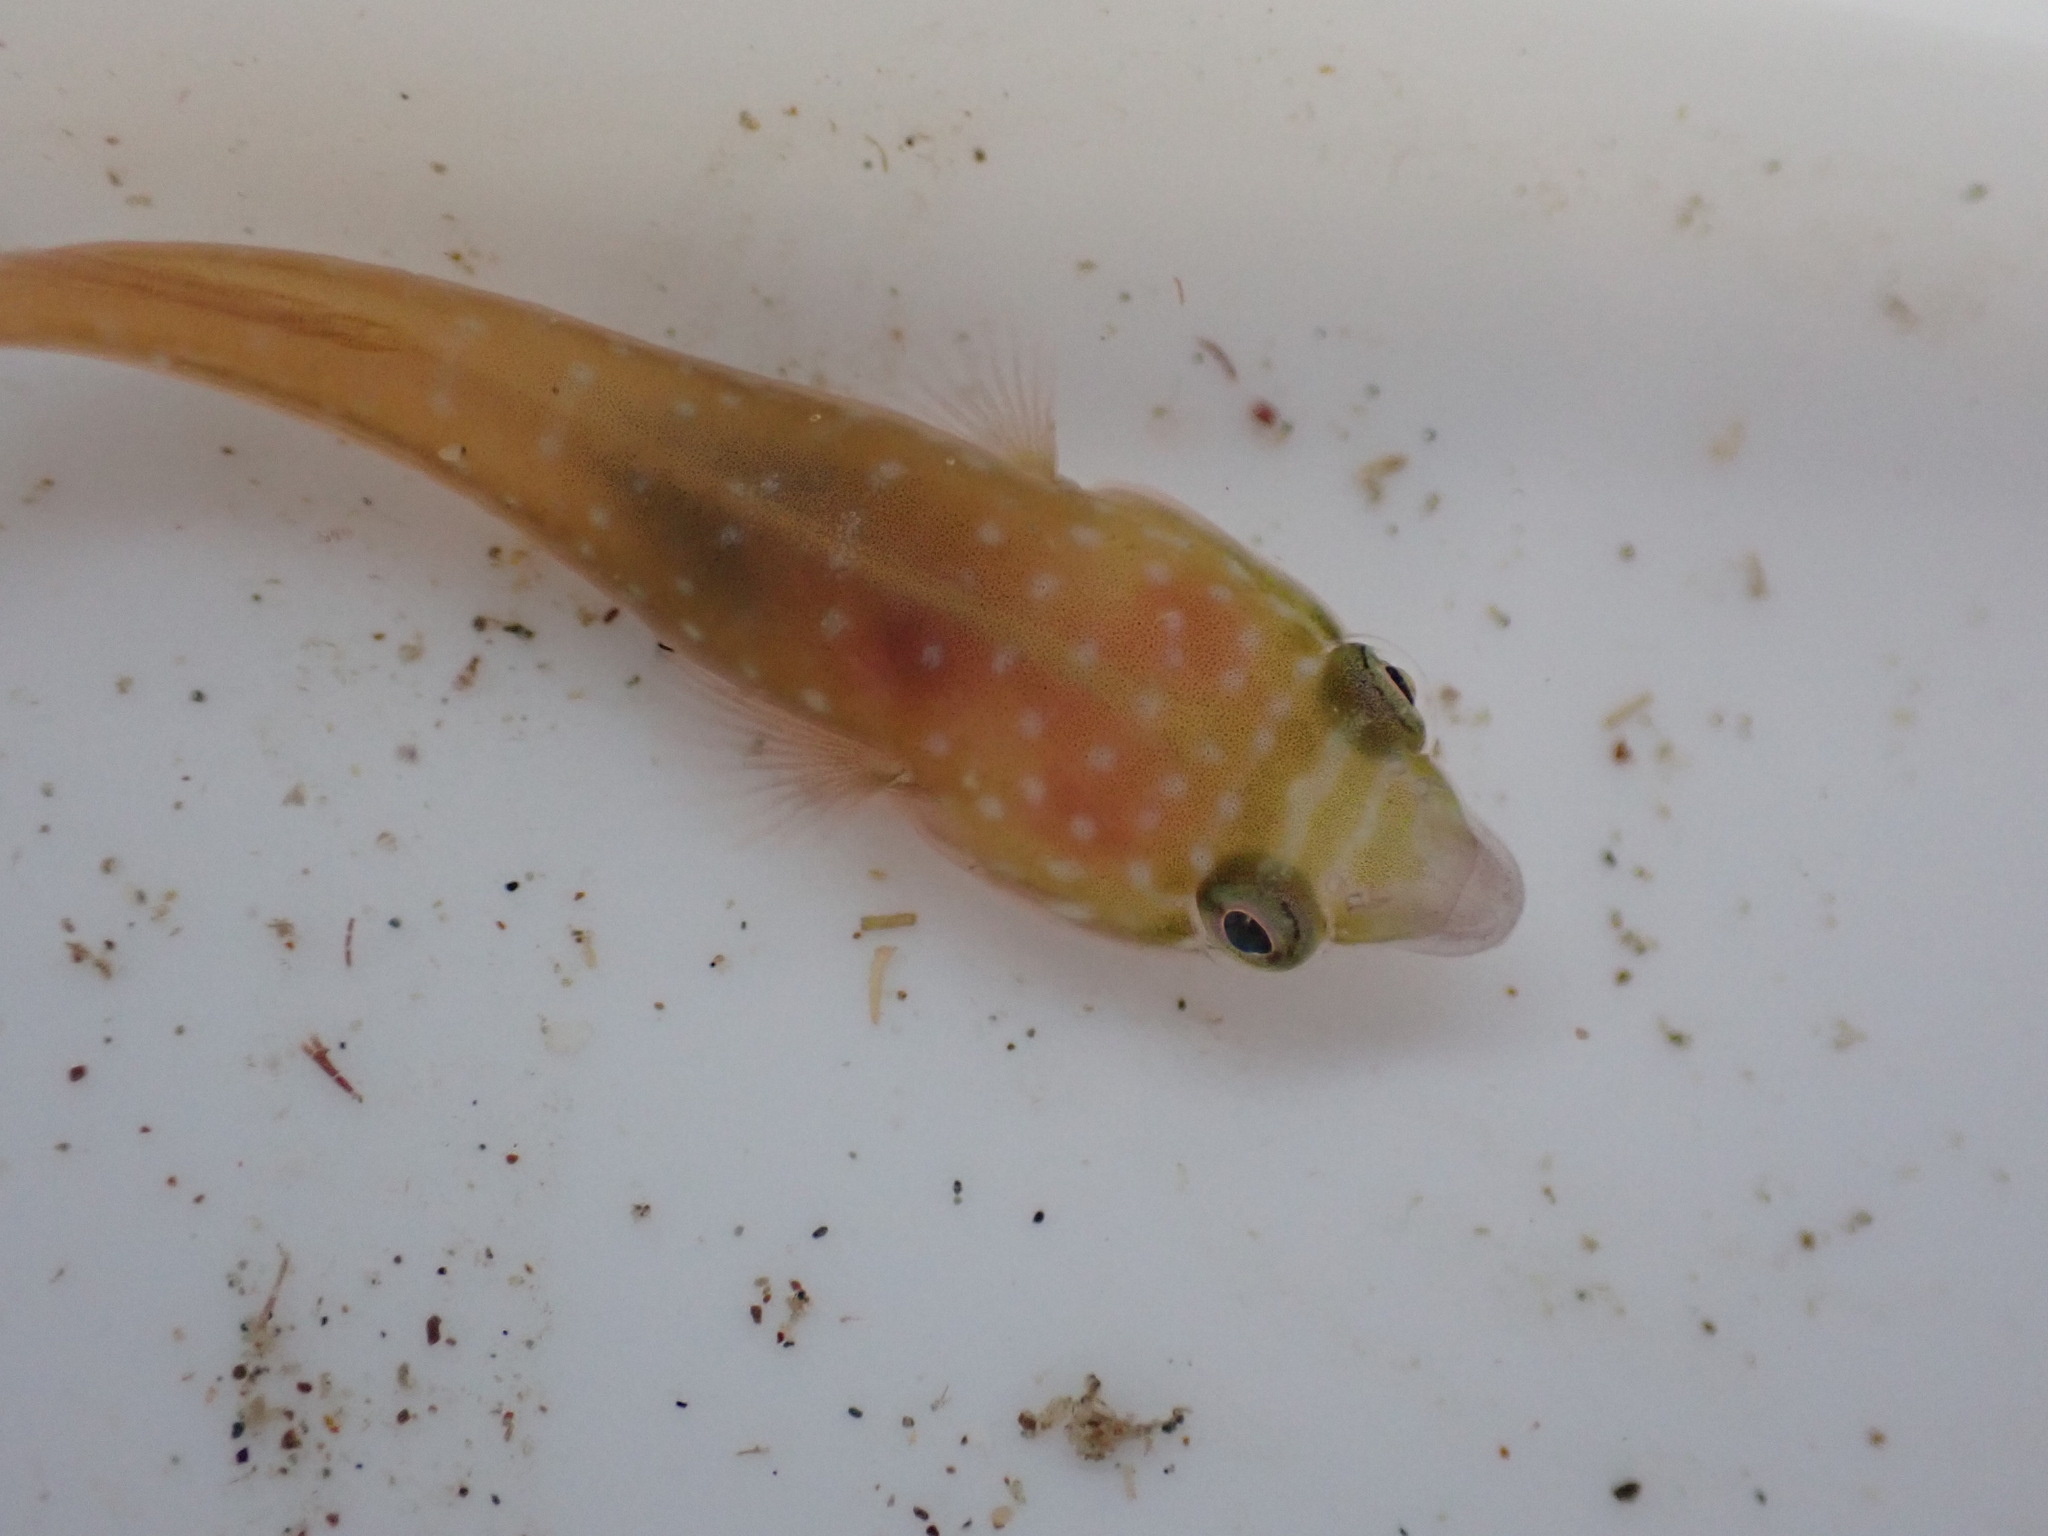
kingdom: Animalia
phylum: Chordata
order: Gobiesociformes
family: Gobiesocidae
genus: Dellichthys
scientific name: Dellichthys trnskii
